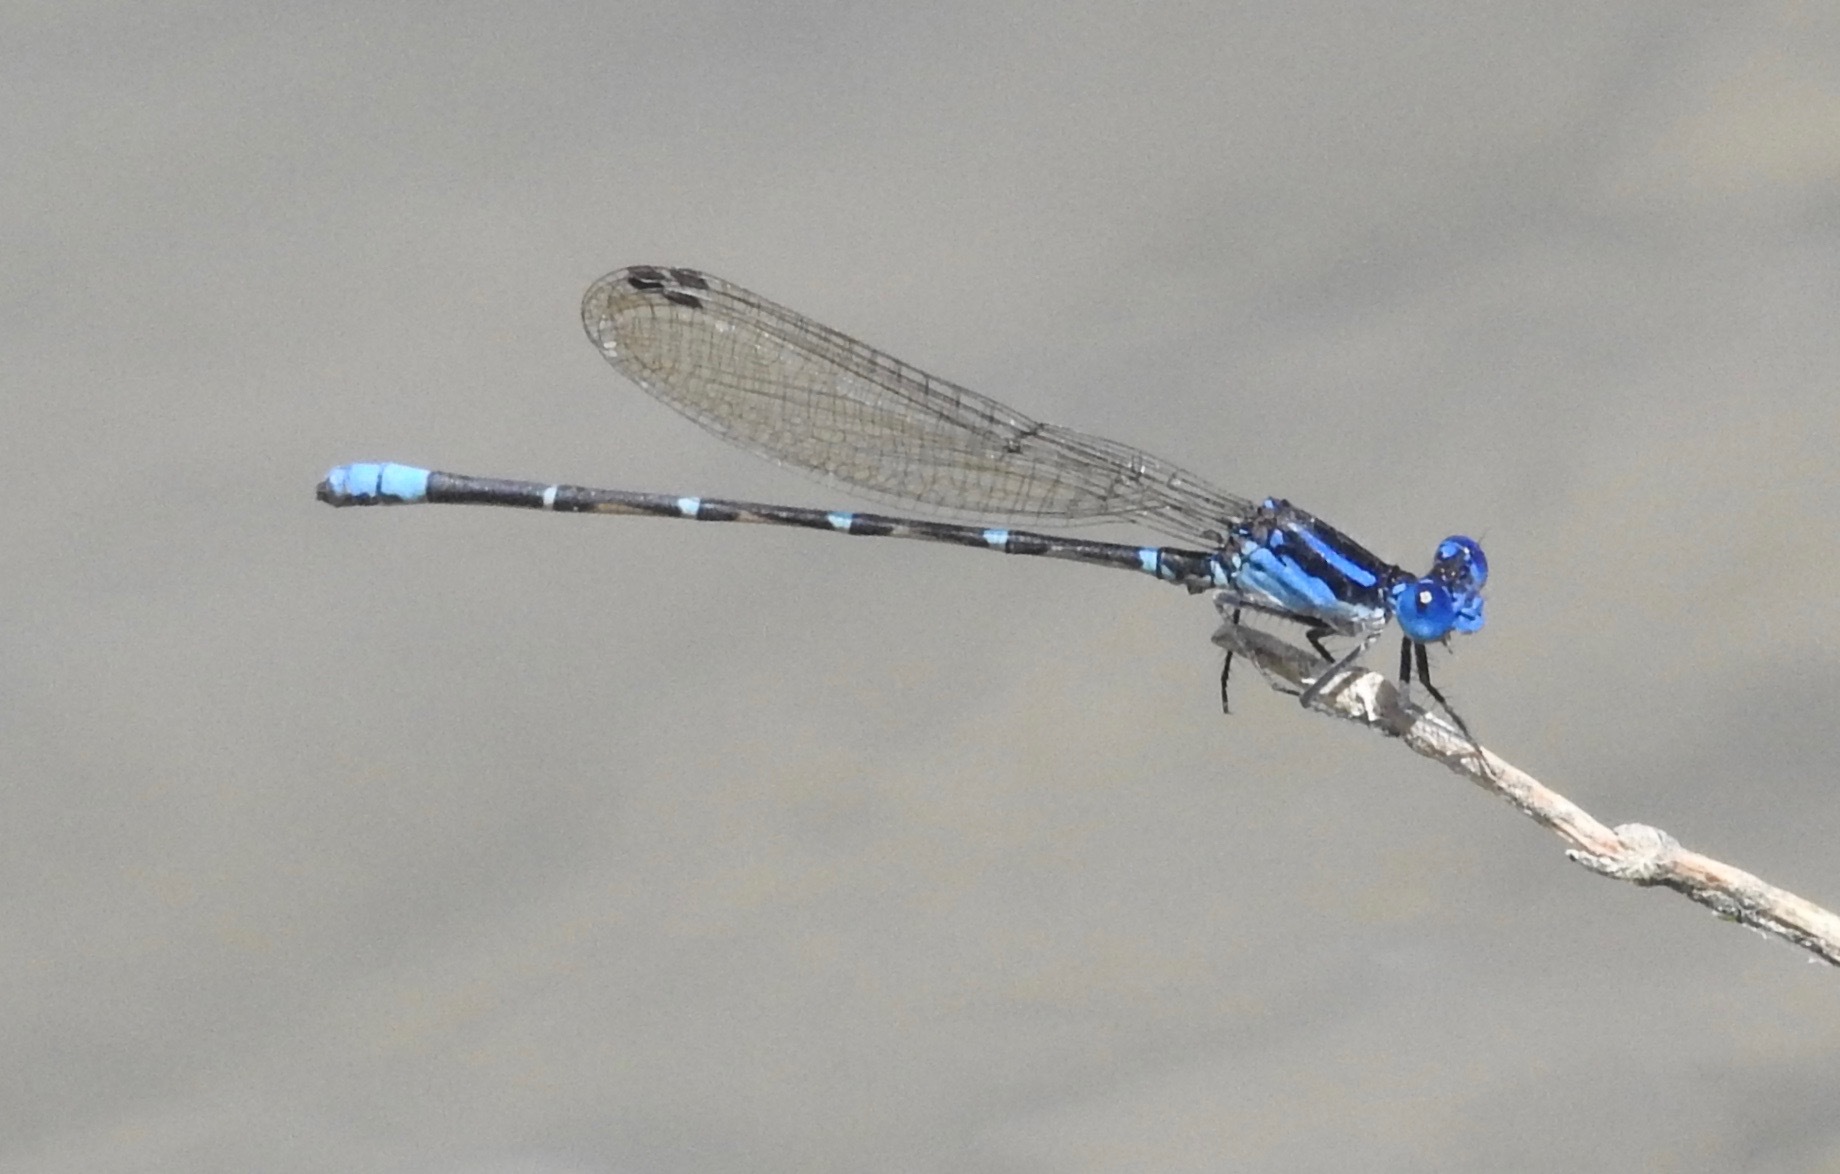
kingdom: Animalia
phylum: Arthropoda
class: Insecta
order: Odonata
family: Coenagrionidae
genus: Argia
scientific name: Argia sedula
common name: Blue-ringed dancer
